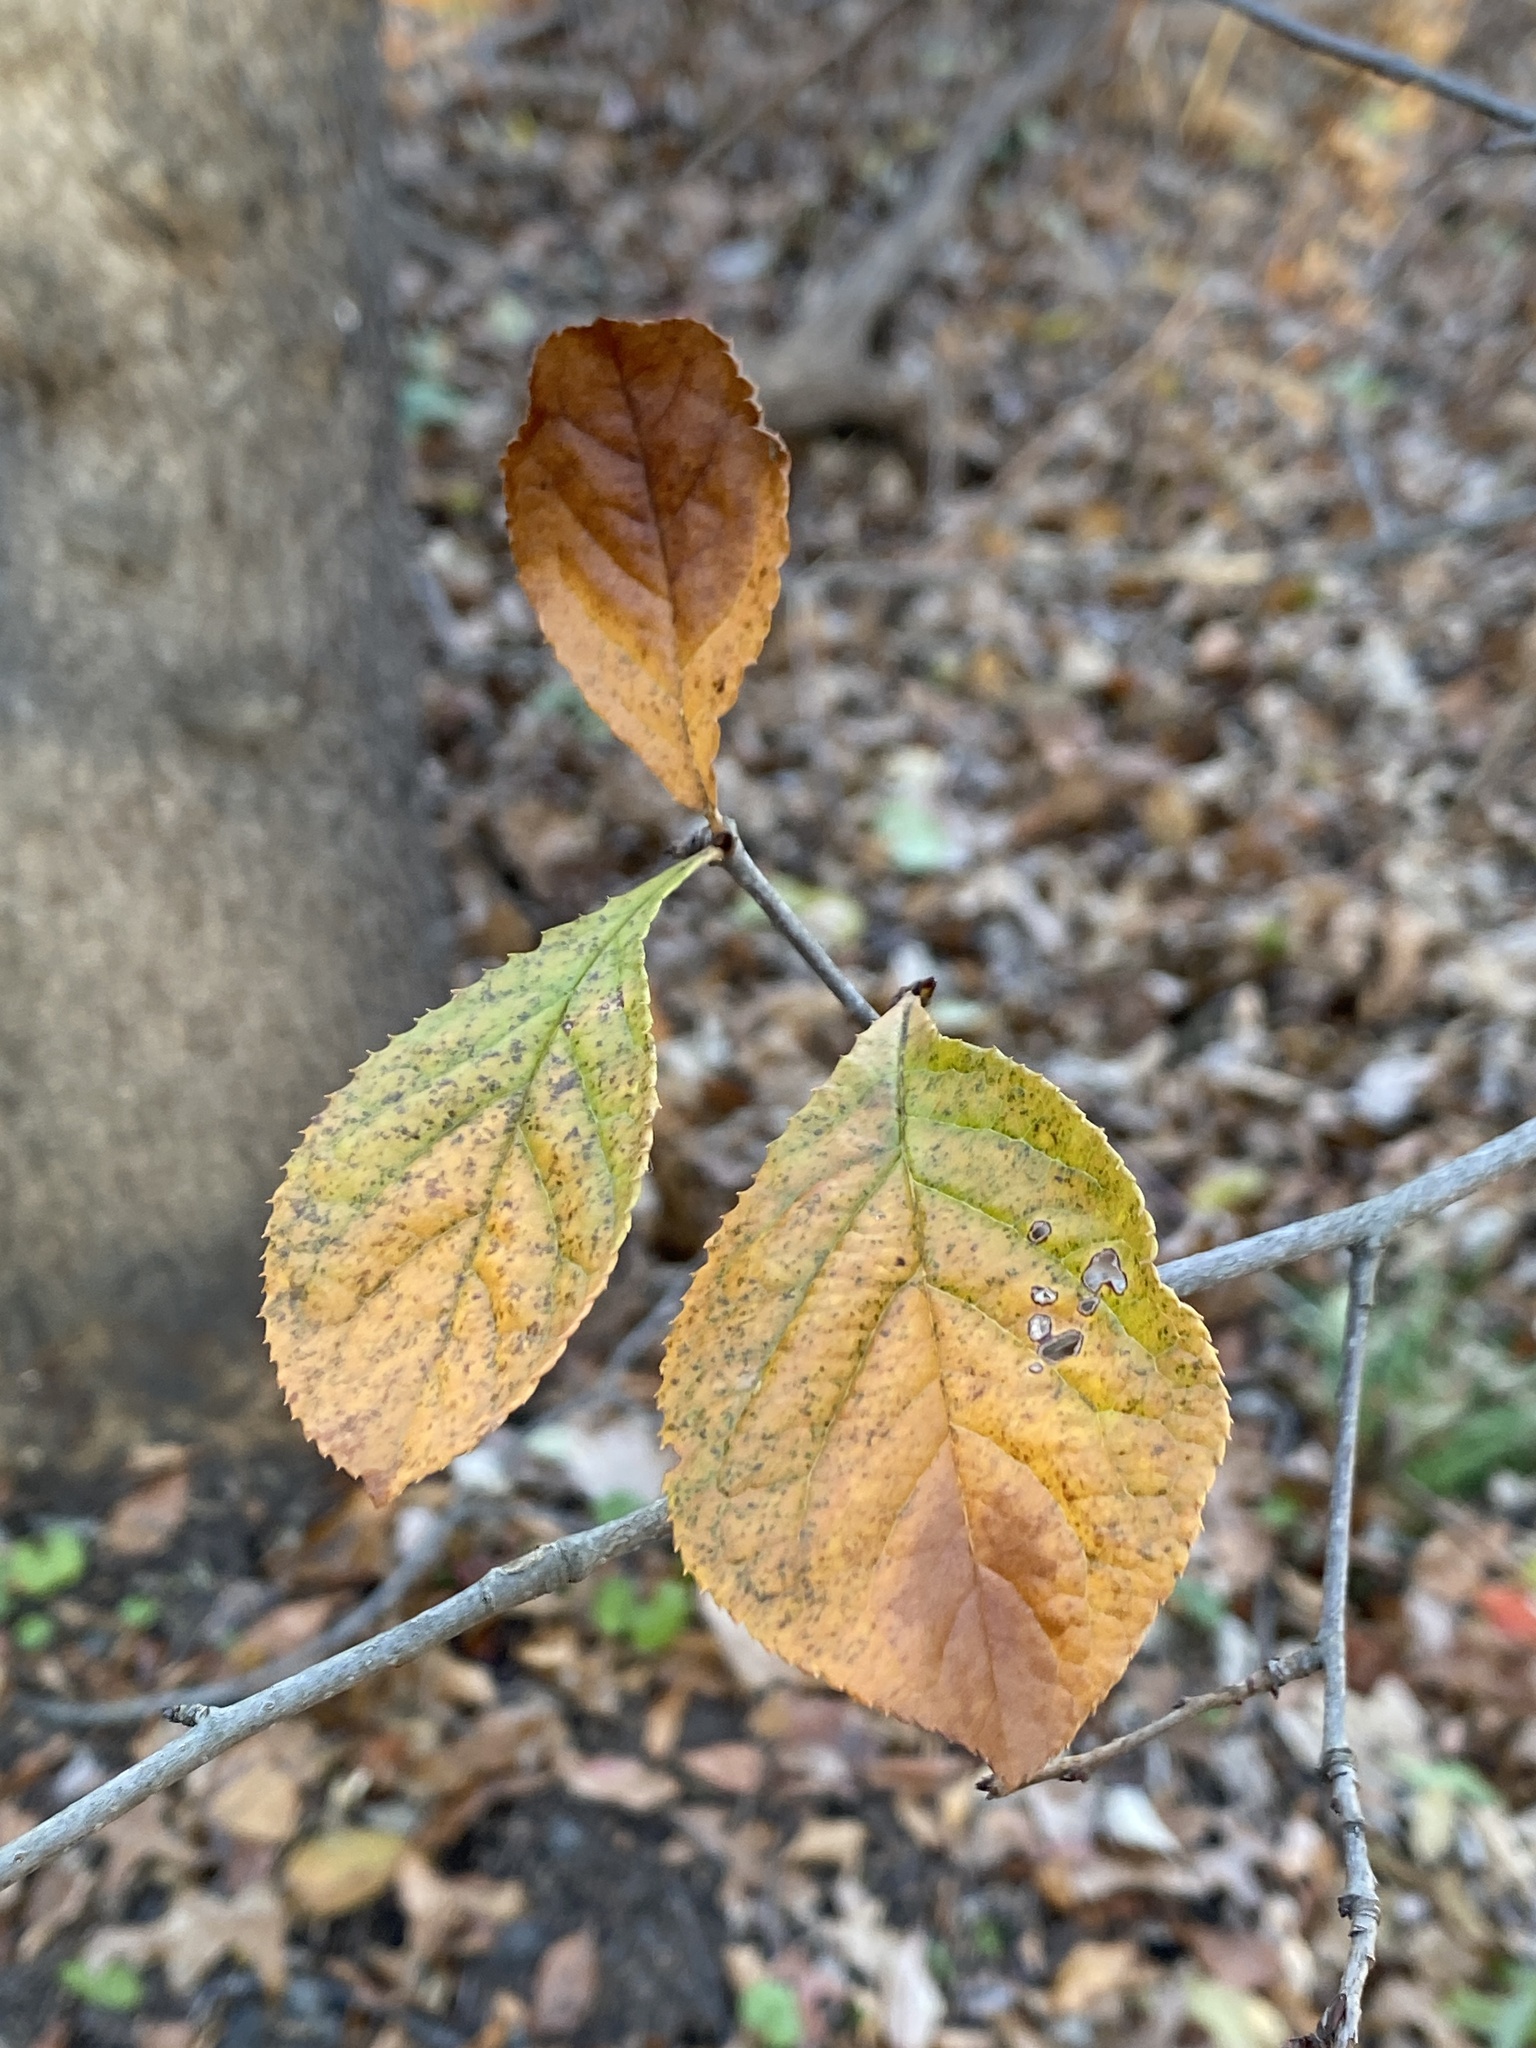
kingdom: Plantae
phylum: Tracheophyta
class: Magnoliopsida
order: Rosales
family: Rosaceae
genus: Pourthiaea
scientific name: Pourthiaea villosa
